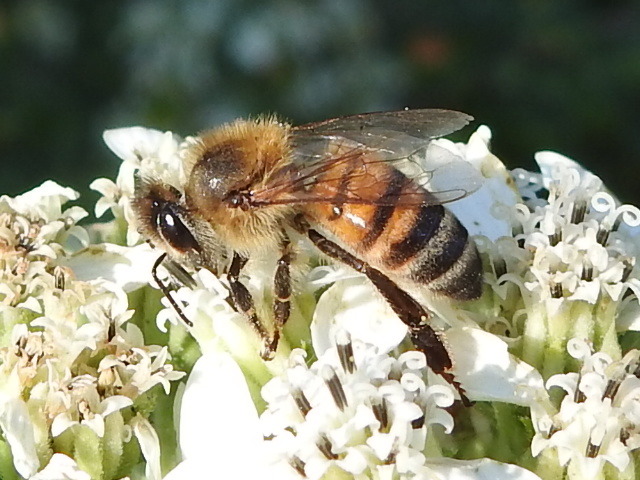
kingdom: Animalia
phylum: Arthropoda
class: Insecta
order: Hymenoptera
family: Apidae
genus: Apis
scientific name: Apis mellifera
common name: Honey bee
